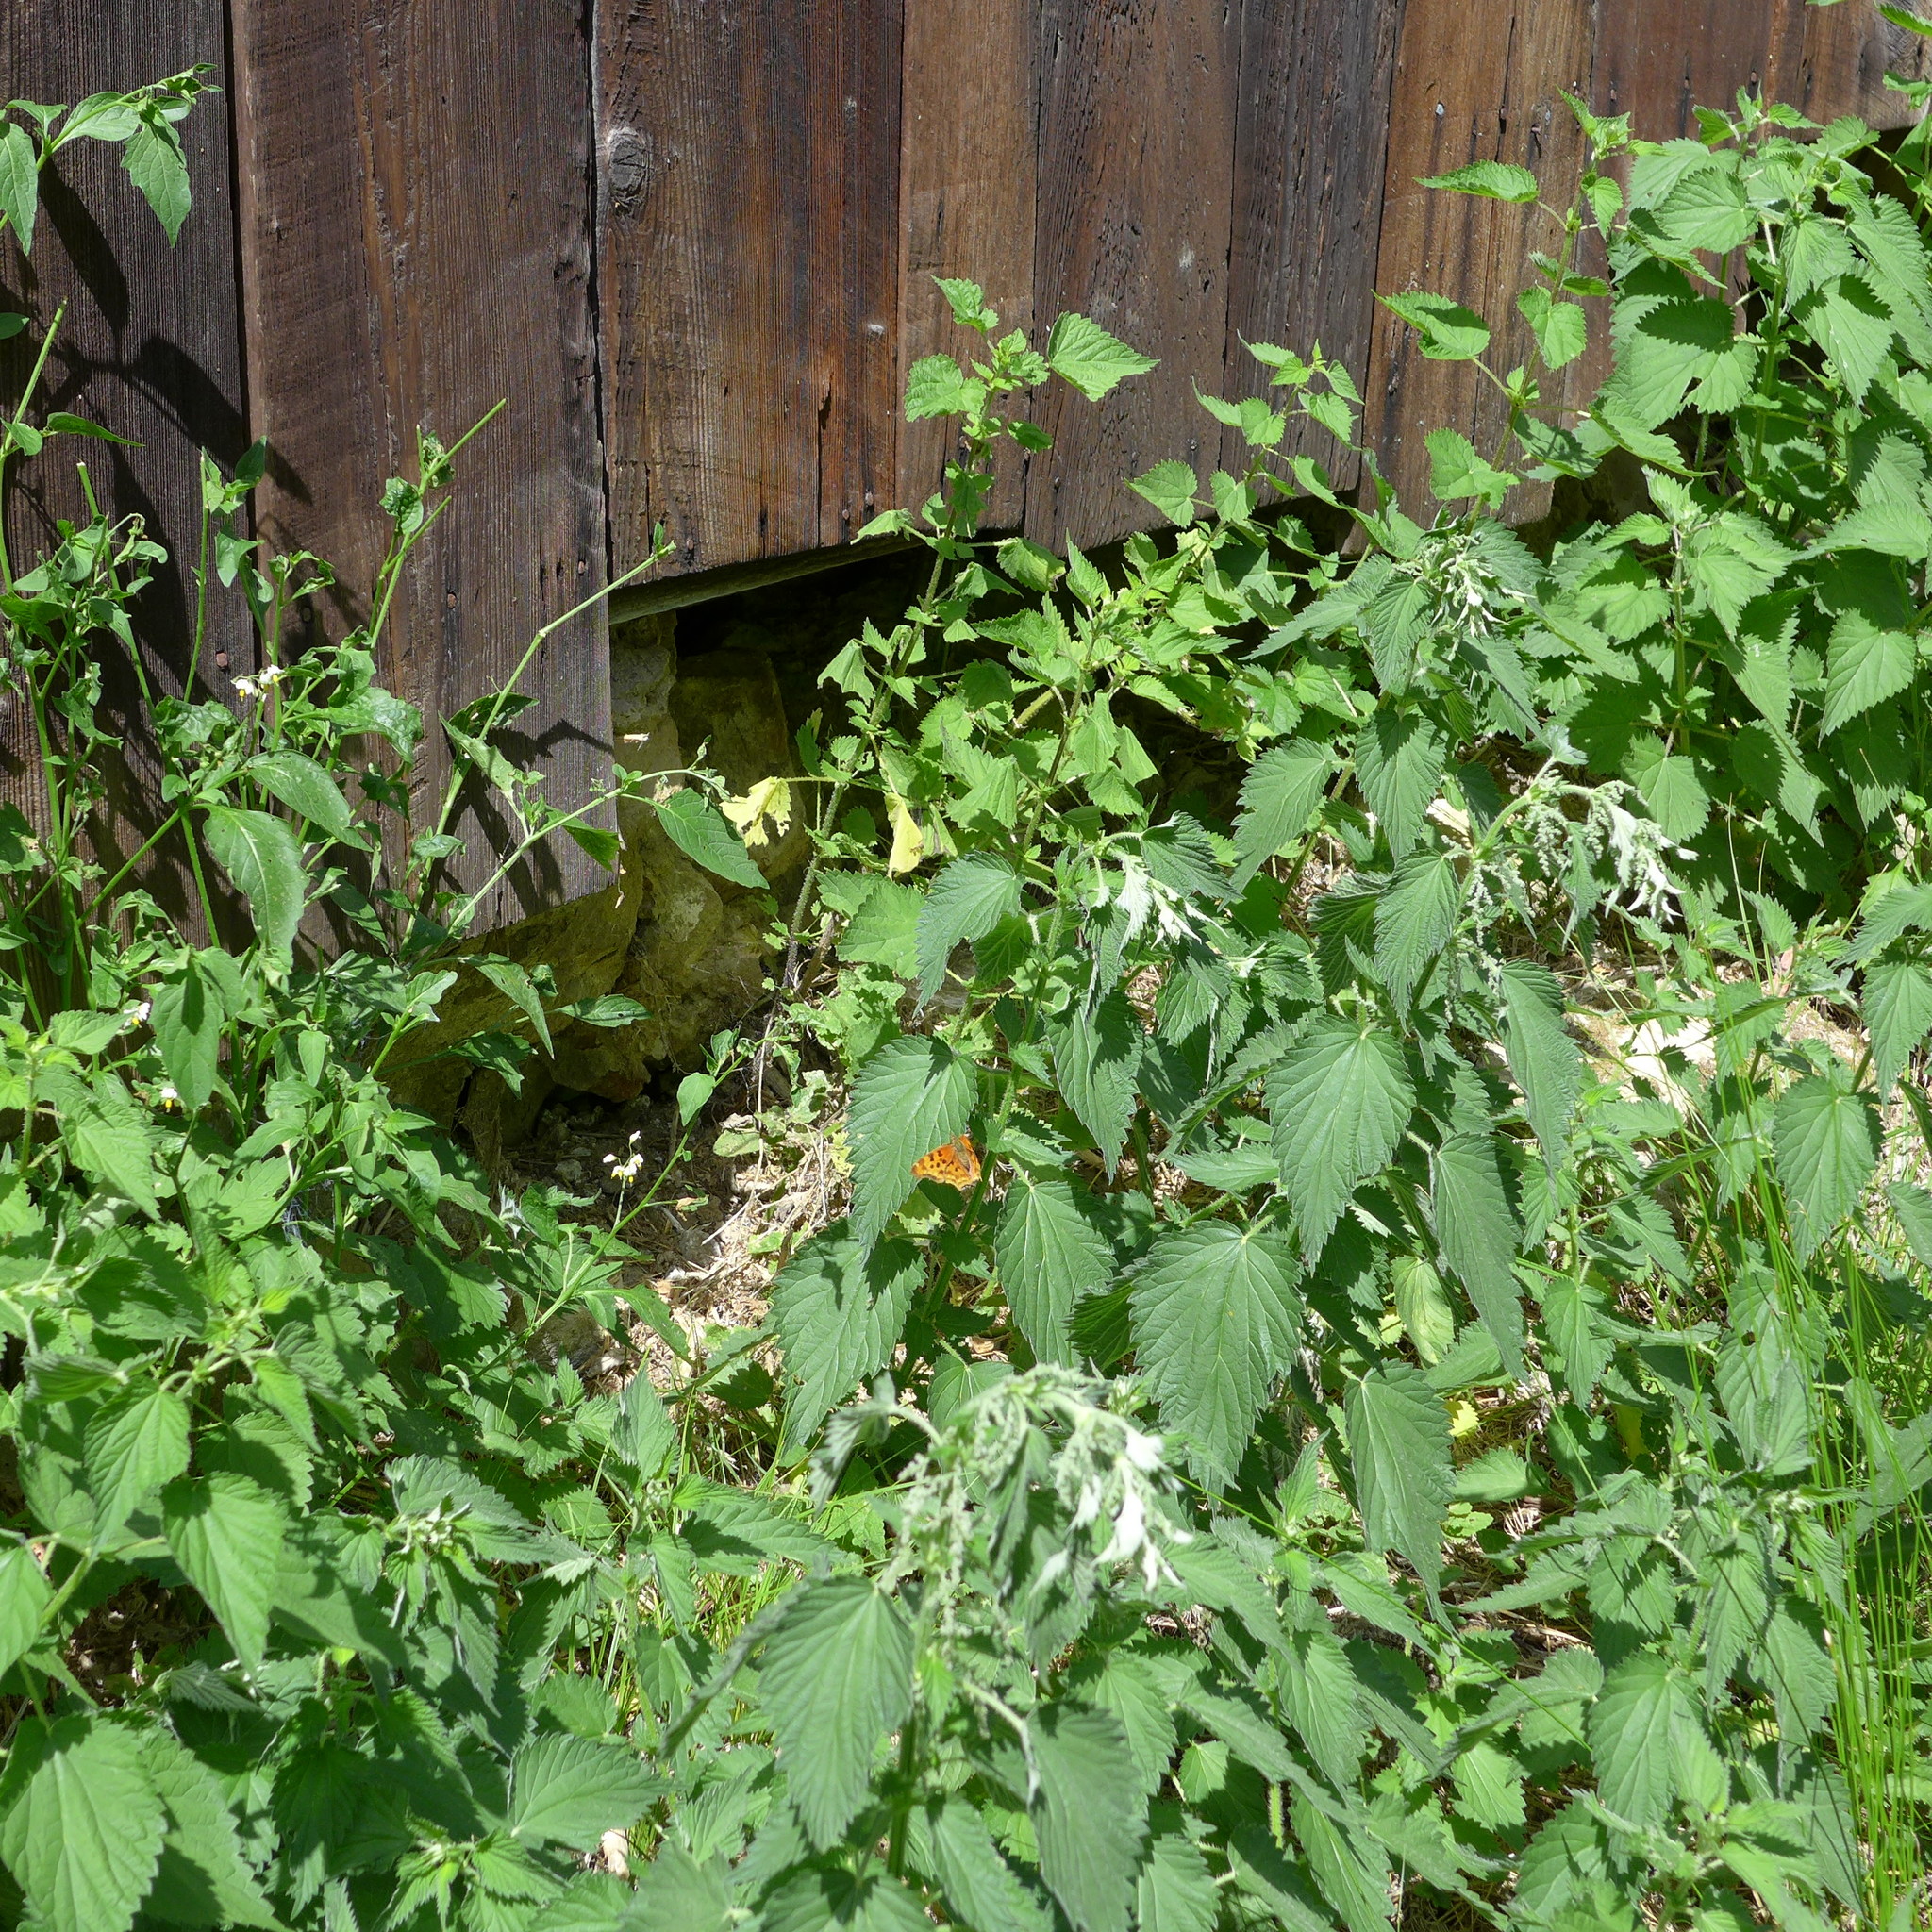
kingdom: Plantae
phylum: Tracheophyta
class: Magnoliopsida
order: Rosales
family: Urticaceae
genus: Urtica
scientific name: Urtica dioica
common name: Common nettle
